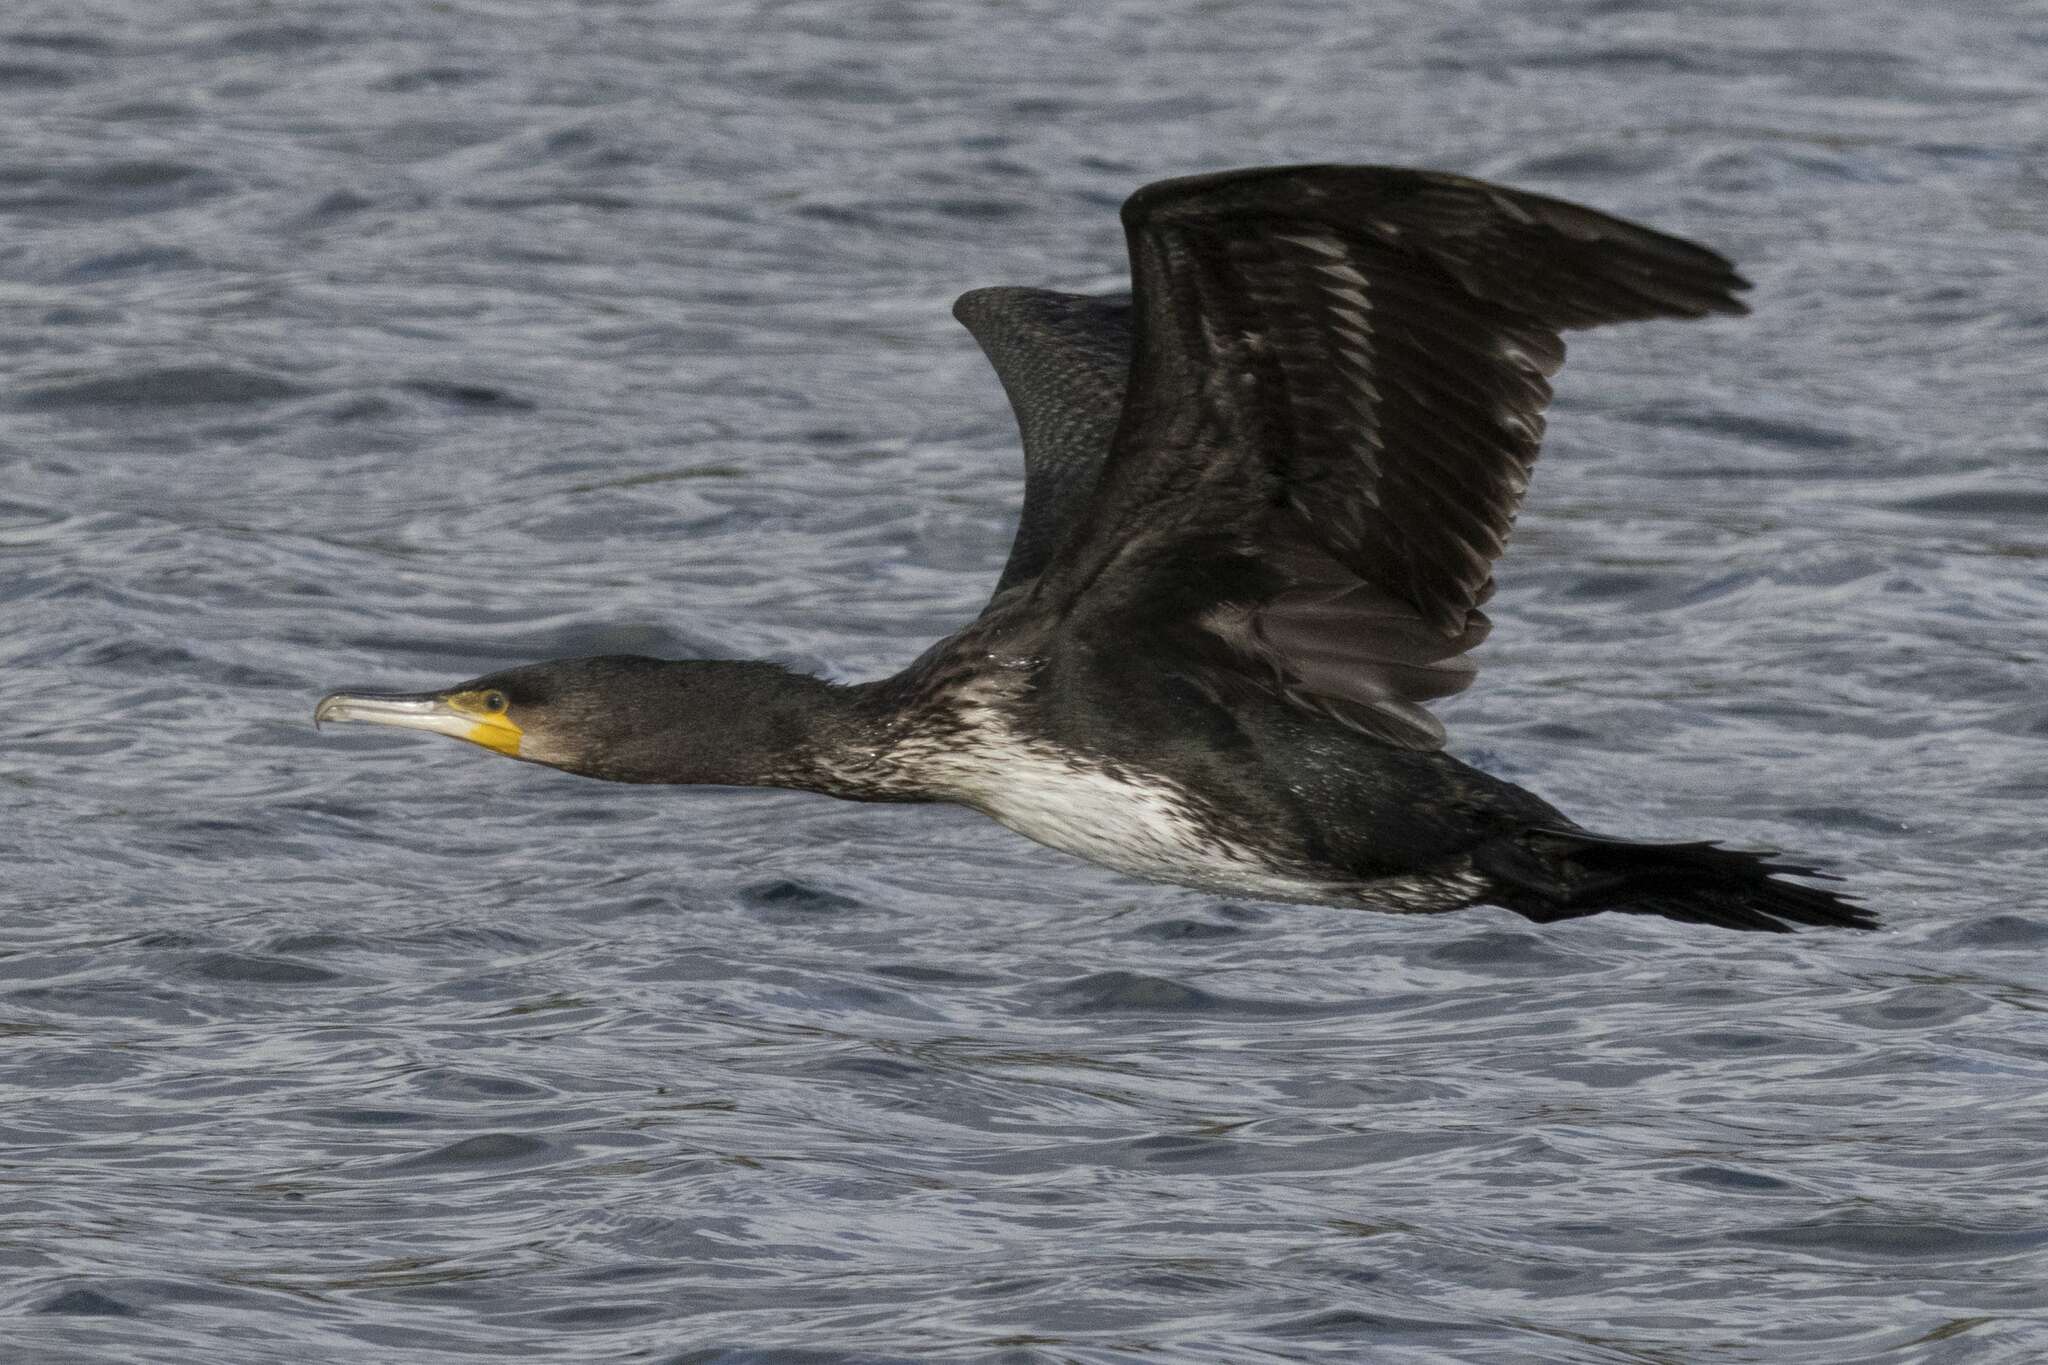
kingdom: Animalia
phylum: Chordata
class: Aves
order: Suliformes
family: Phalacrocoracidae
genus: Phalacrocorax
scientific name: Phalacrocorax carbo
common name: Great cormorant
